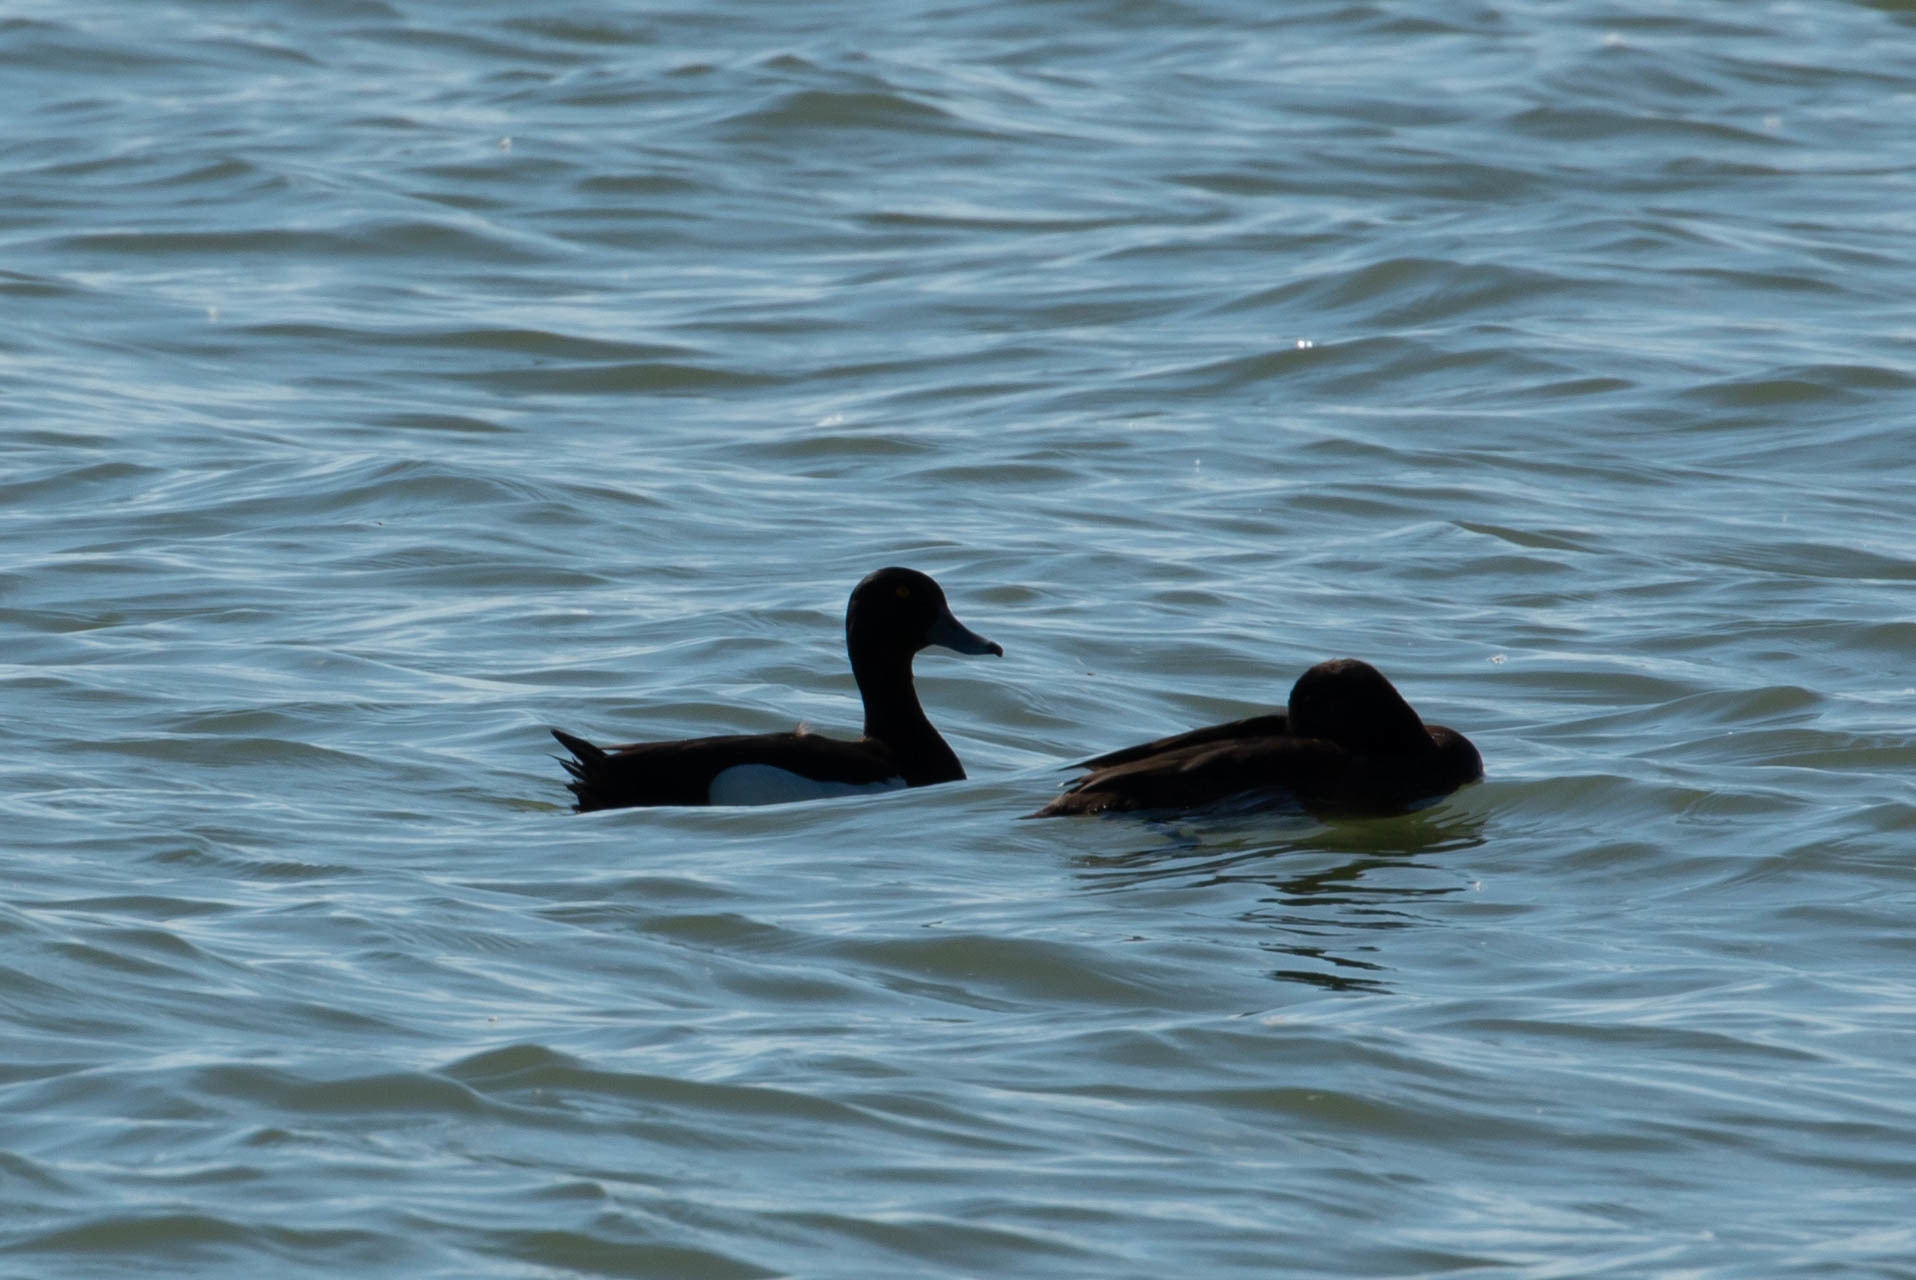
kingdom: Animalia
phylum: Chordata
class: Aves
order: Anseriformes
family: Anatidae
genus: Aythya
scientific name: Aythya fuligula
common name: Tufted duck
